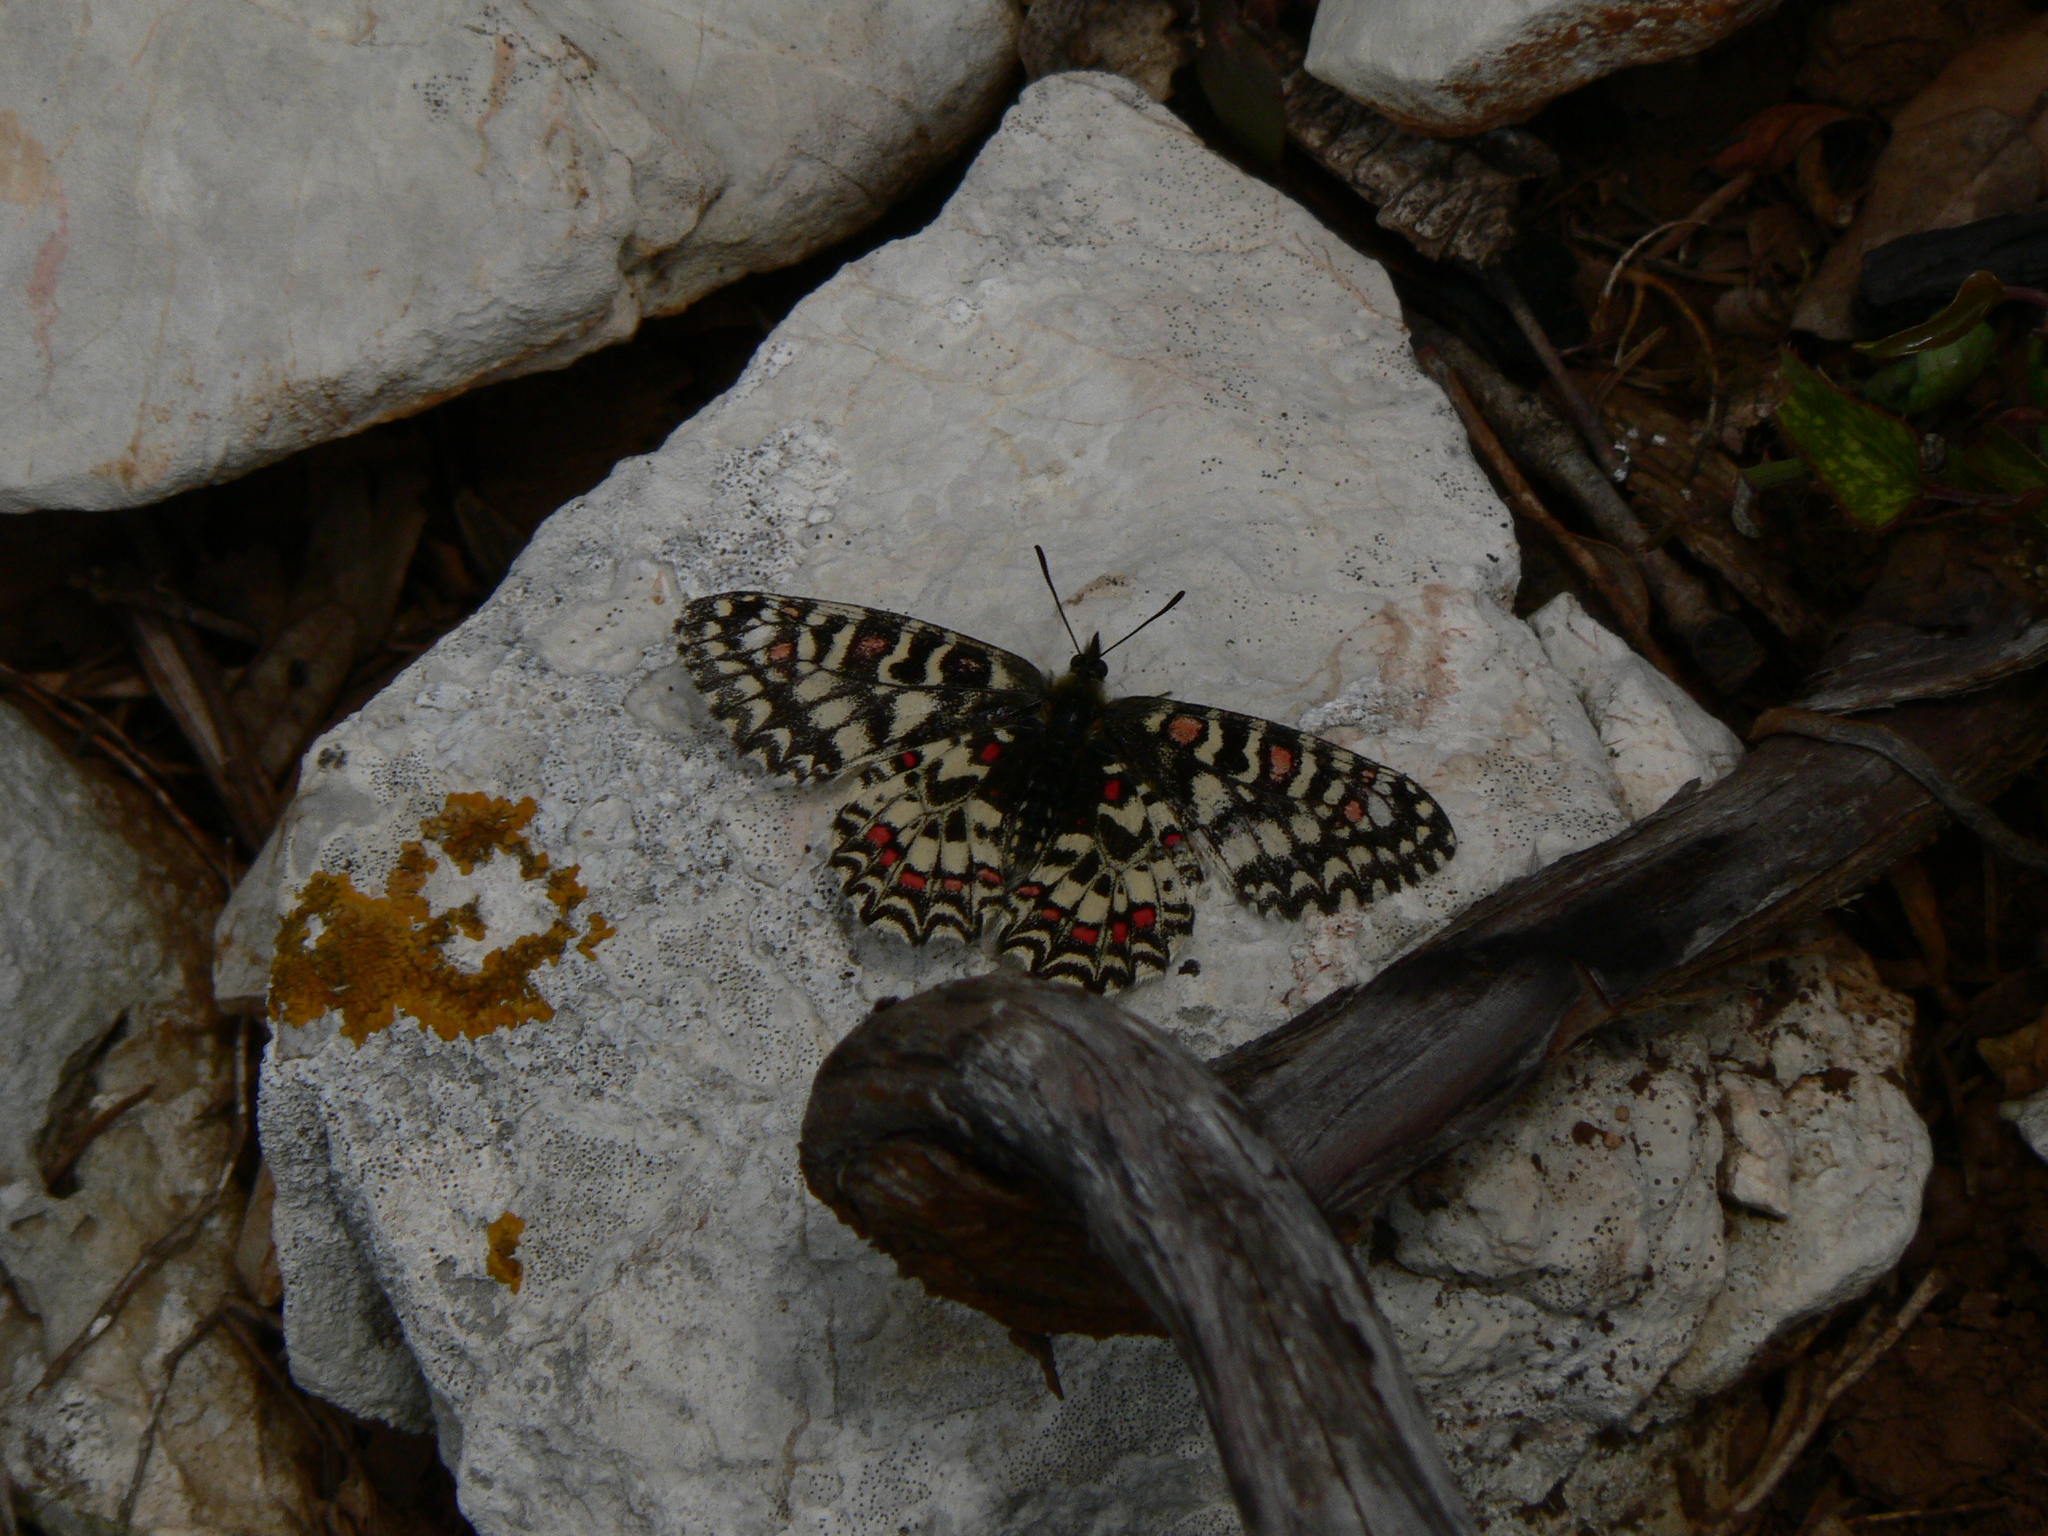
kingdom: Animalia
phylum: Arthropoda
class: Insecta
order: Lepidoptera
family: Papilionidae
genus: Zerynthia
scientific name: Zerynthia rumina
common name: Spanish festoon
